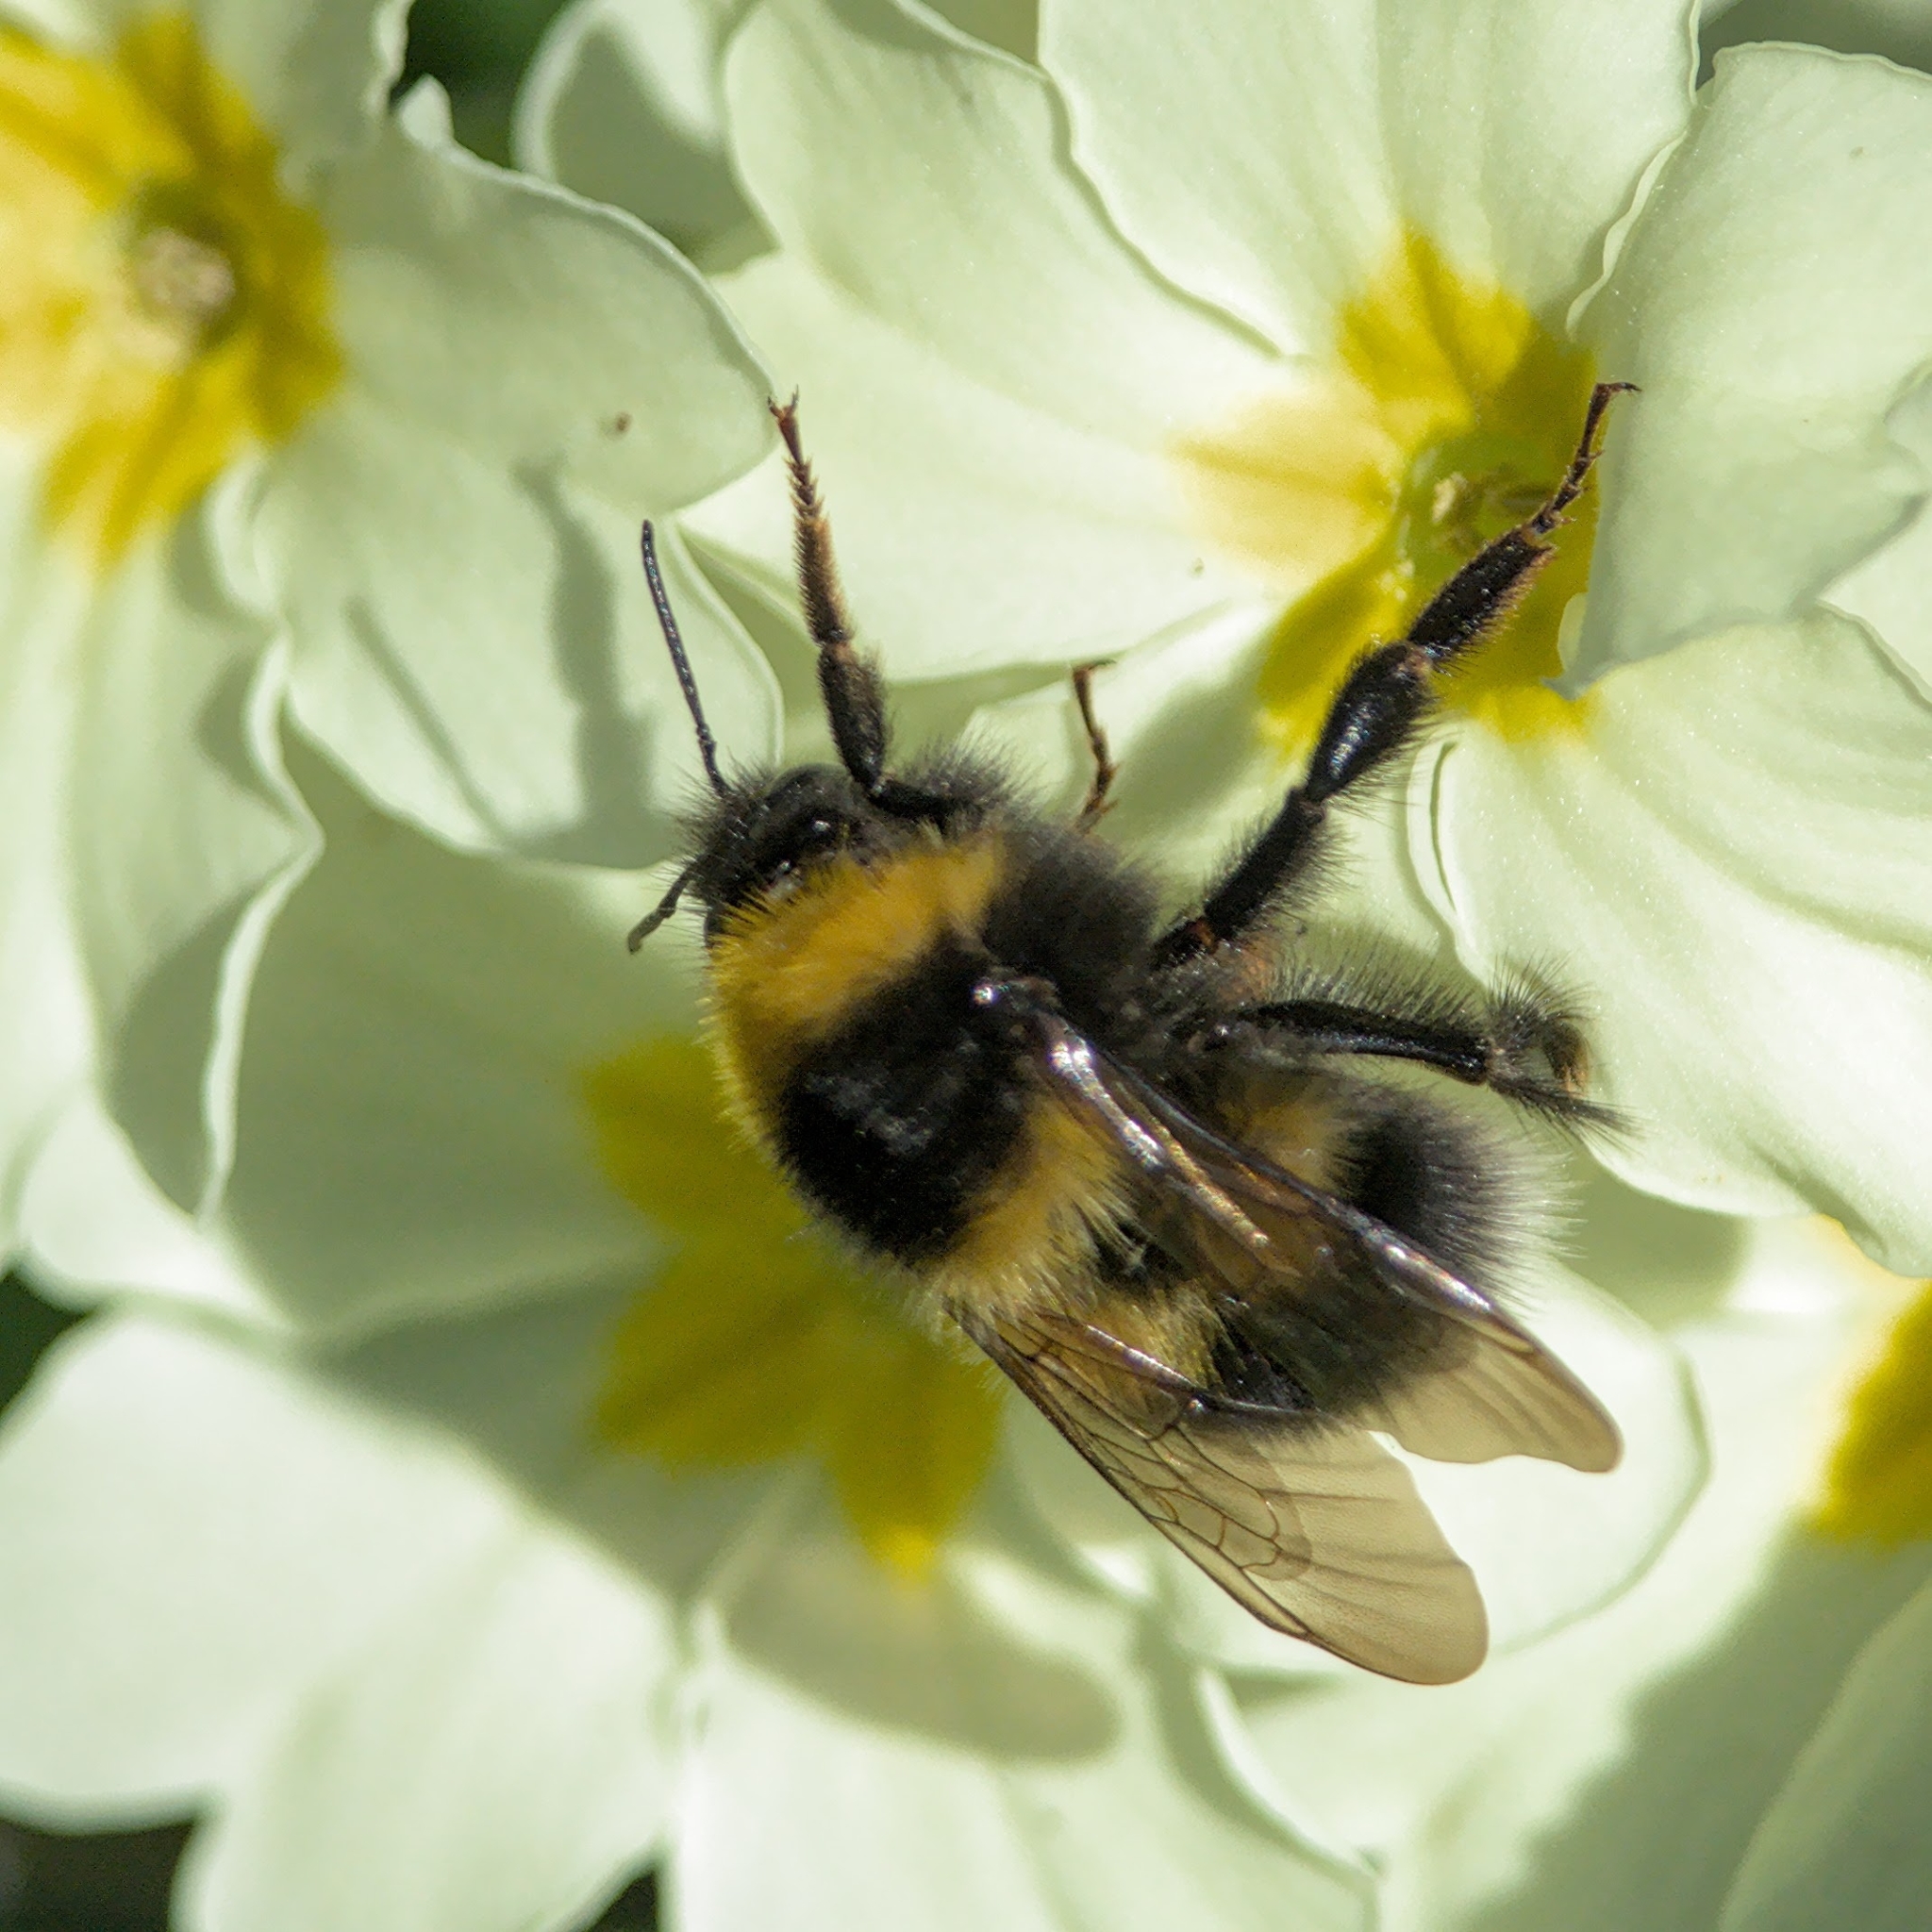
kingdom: Animalia
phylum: Arthropoda
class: Insecta
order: Hymenoptera
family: Apidae
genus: Bombus
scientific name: Bombus hortorum
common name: Garden bumblebee
